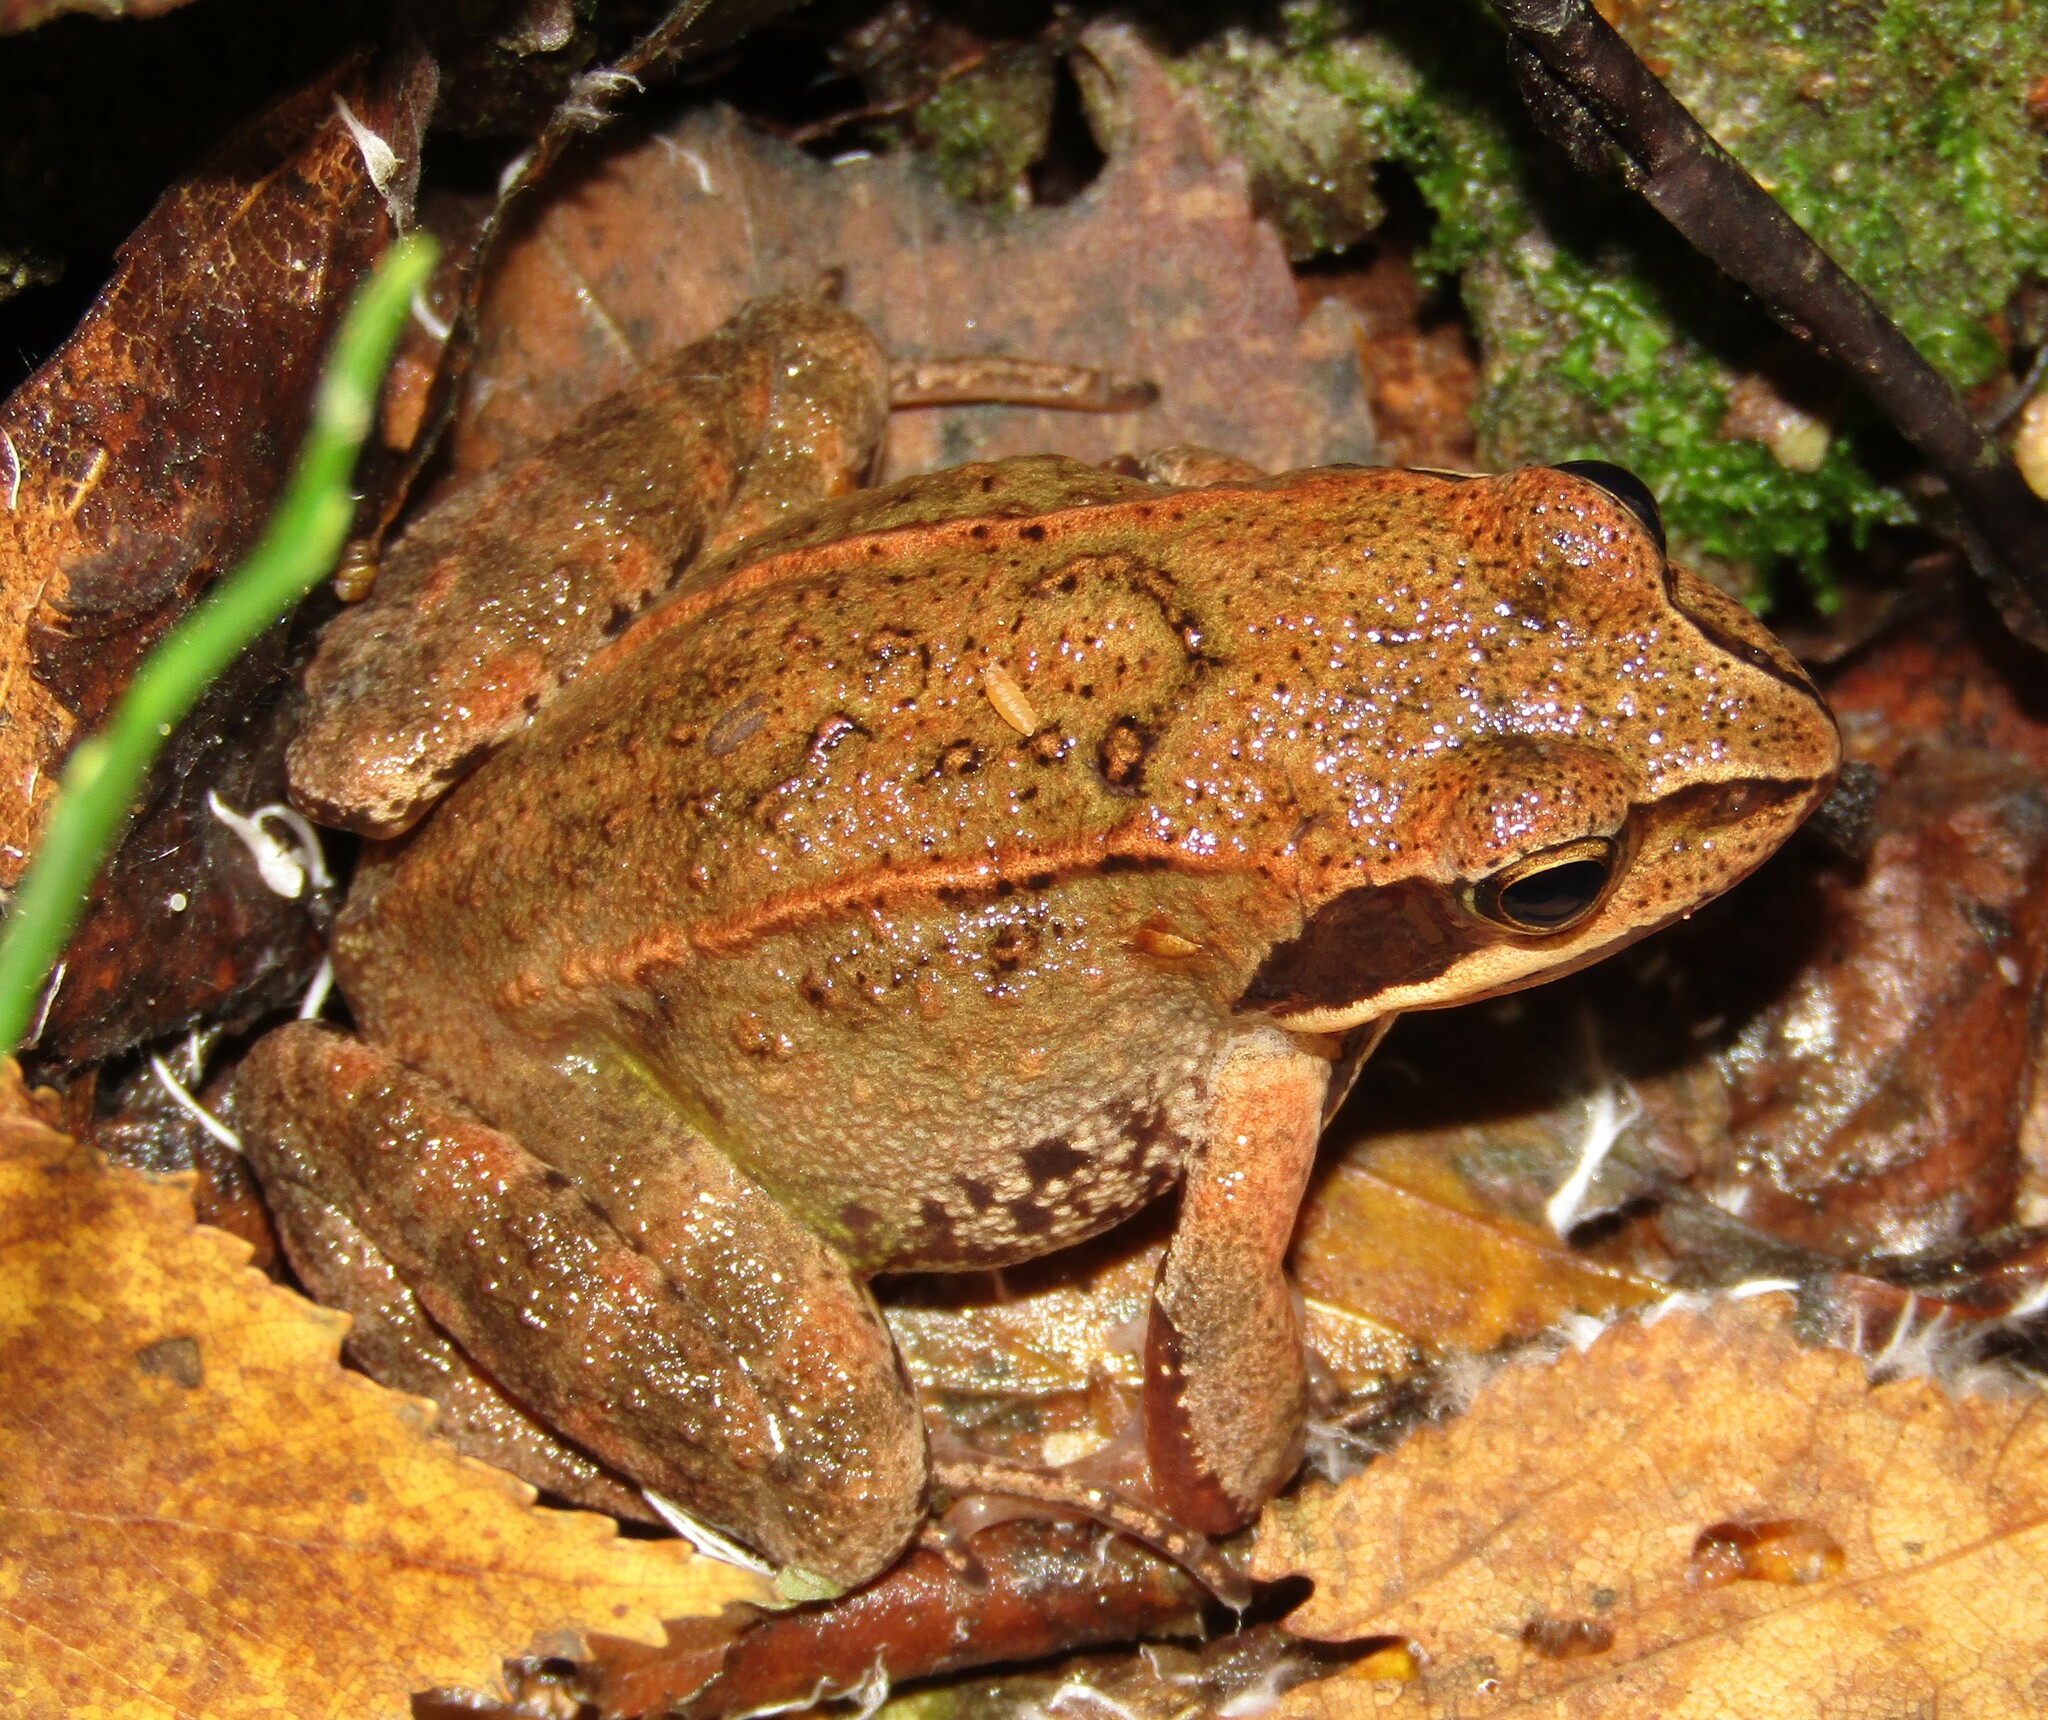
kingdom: Animalia
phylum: Chordata
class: Amphibia
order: Anura
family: Ranidae
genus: Rana
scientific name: Rana temporaria
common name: Common frog
